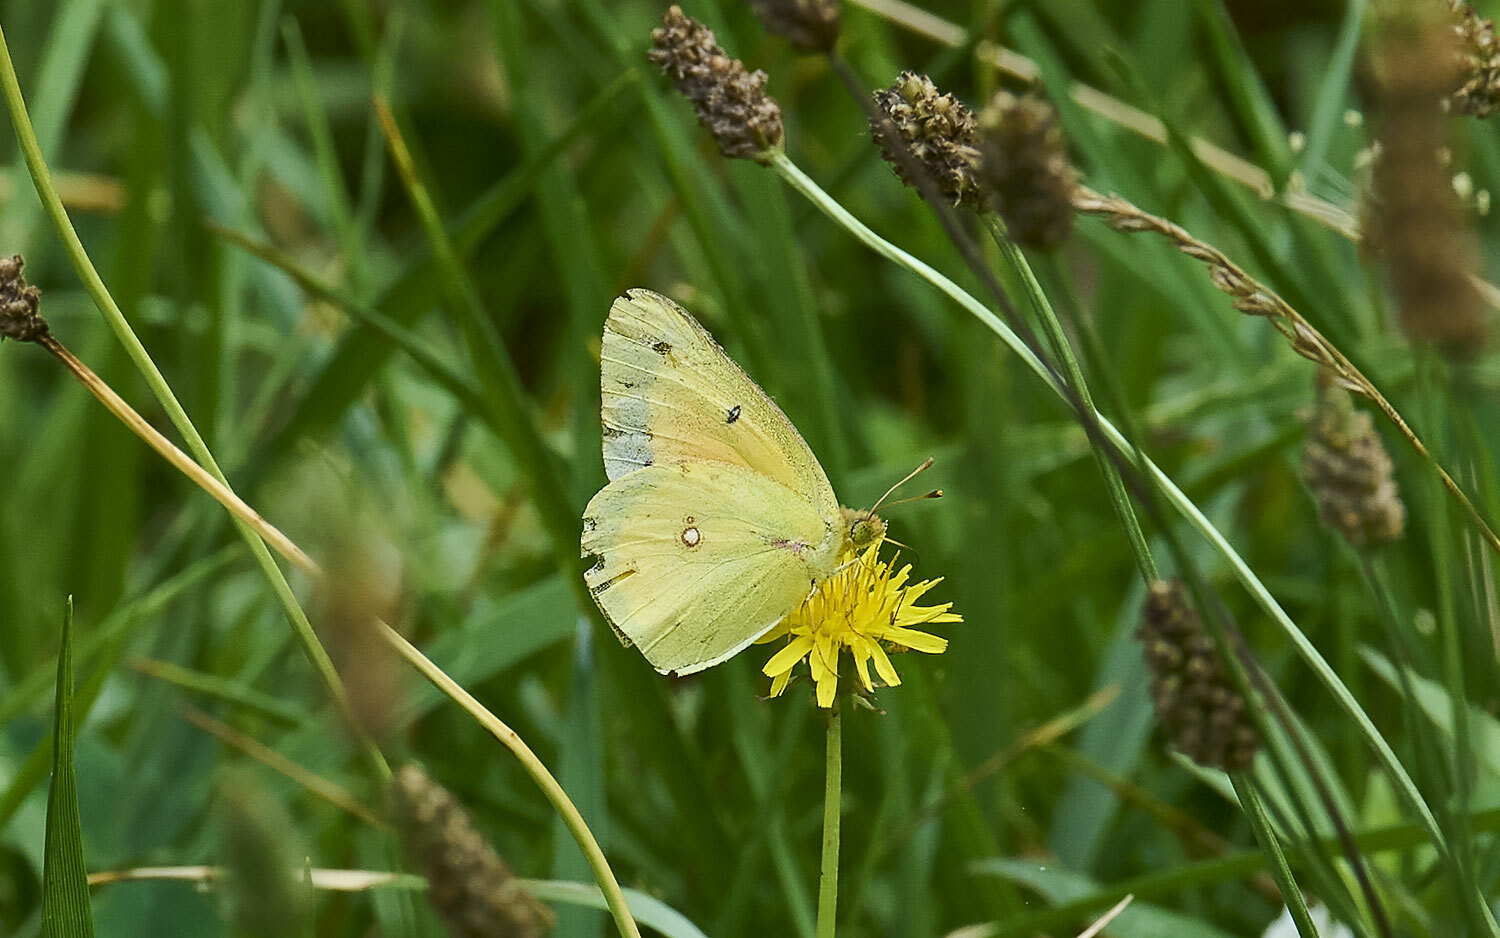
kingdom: Animalia
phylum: Arthropoda
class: Insecta
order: Lepidoptera
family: Pieridae
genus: Colias
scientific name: Colias eurytheme
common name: Alfalfa butterfly
